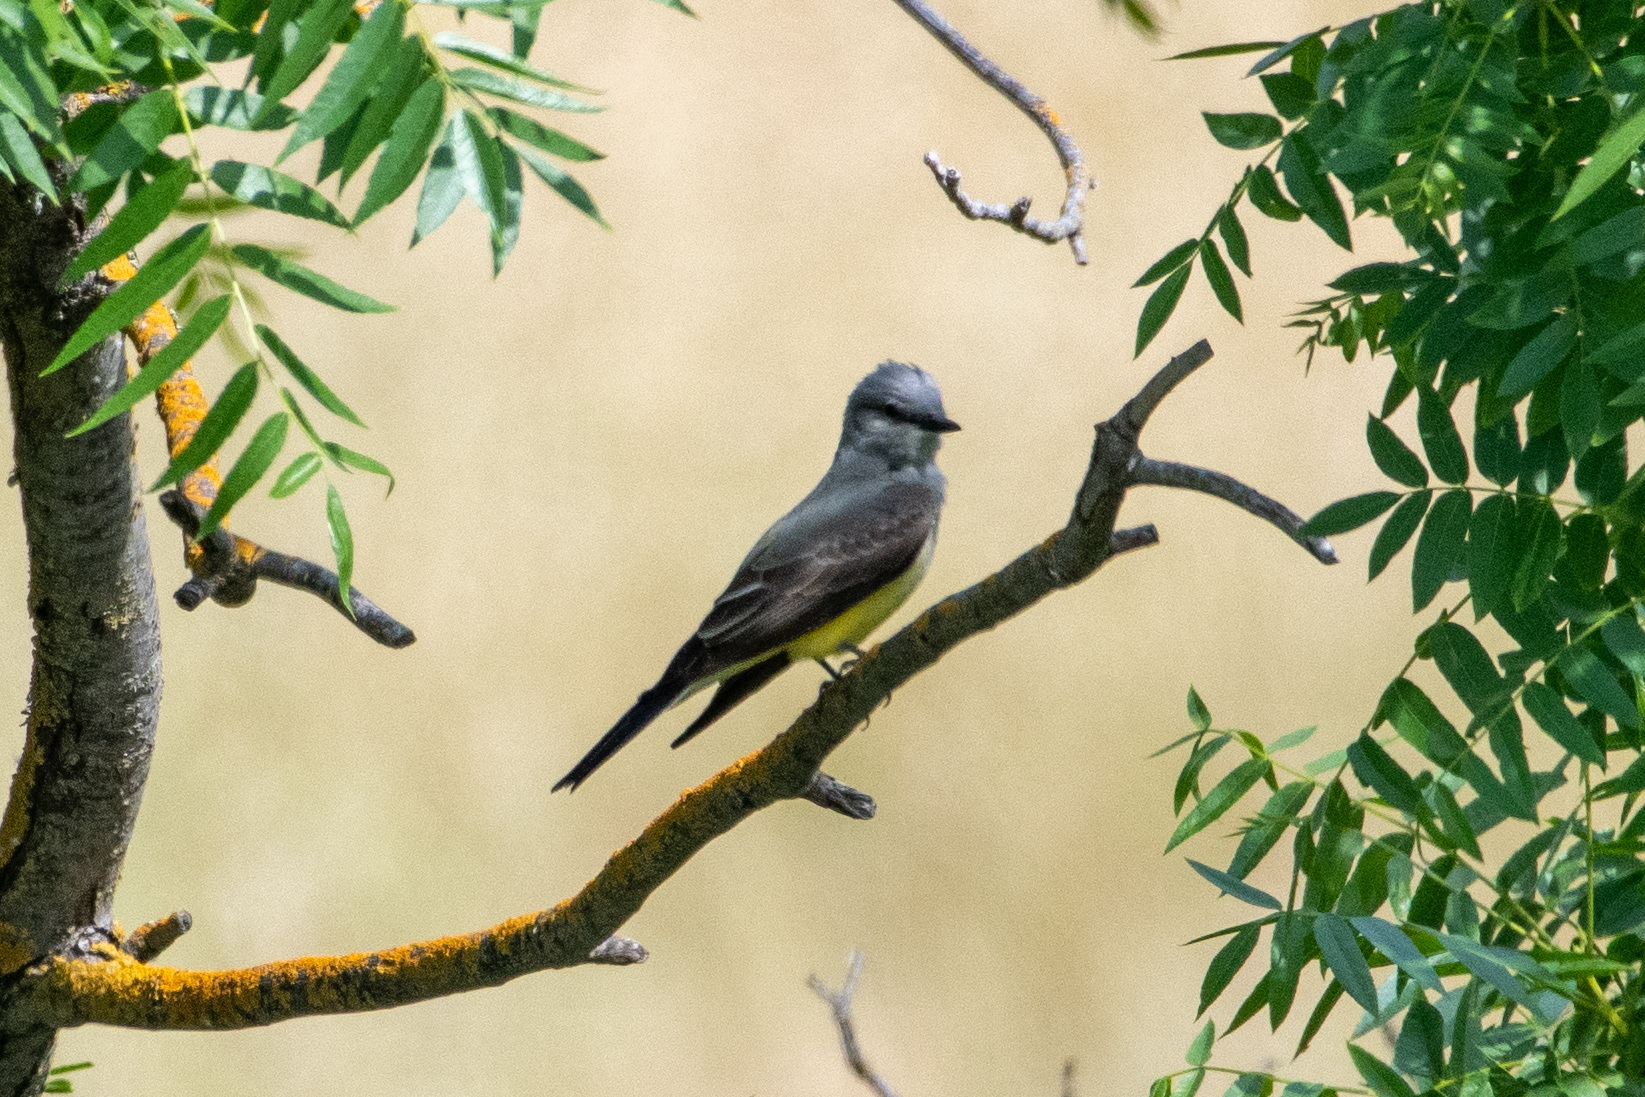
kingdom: Animalia
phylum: Chordata
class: Aves
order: Passeriformes
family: Tyrannidae
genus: Tyrannus
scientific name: Tyrannus verticalis
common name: Western kingbird
